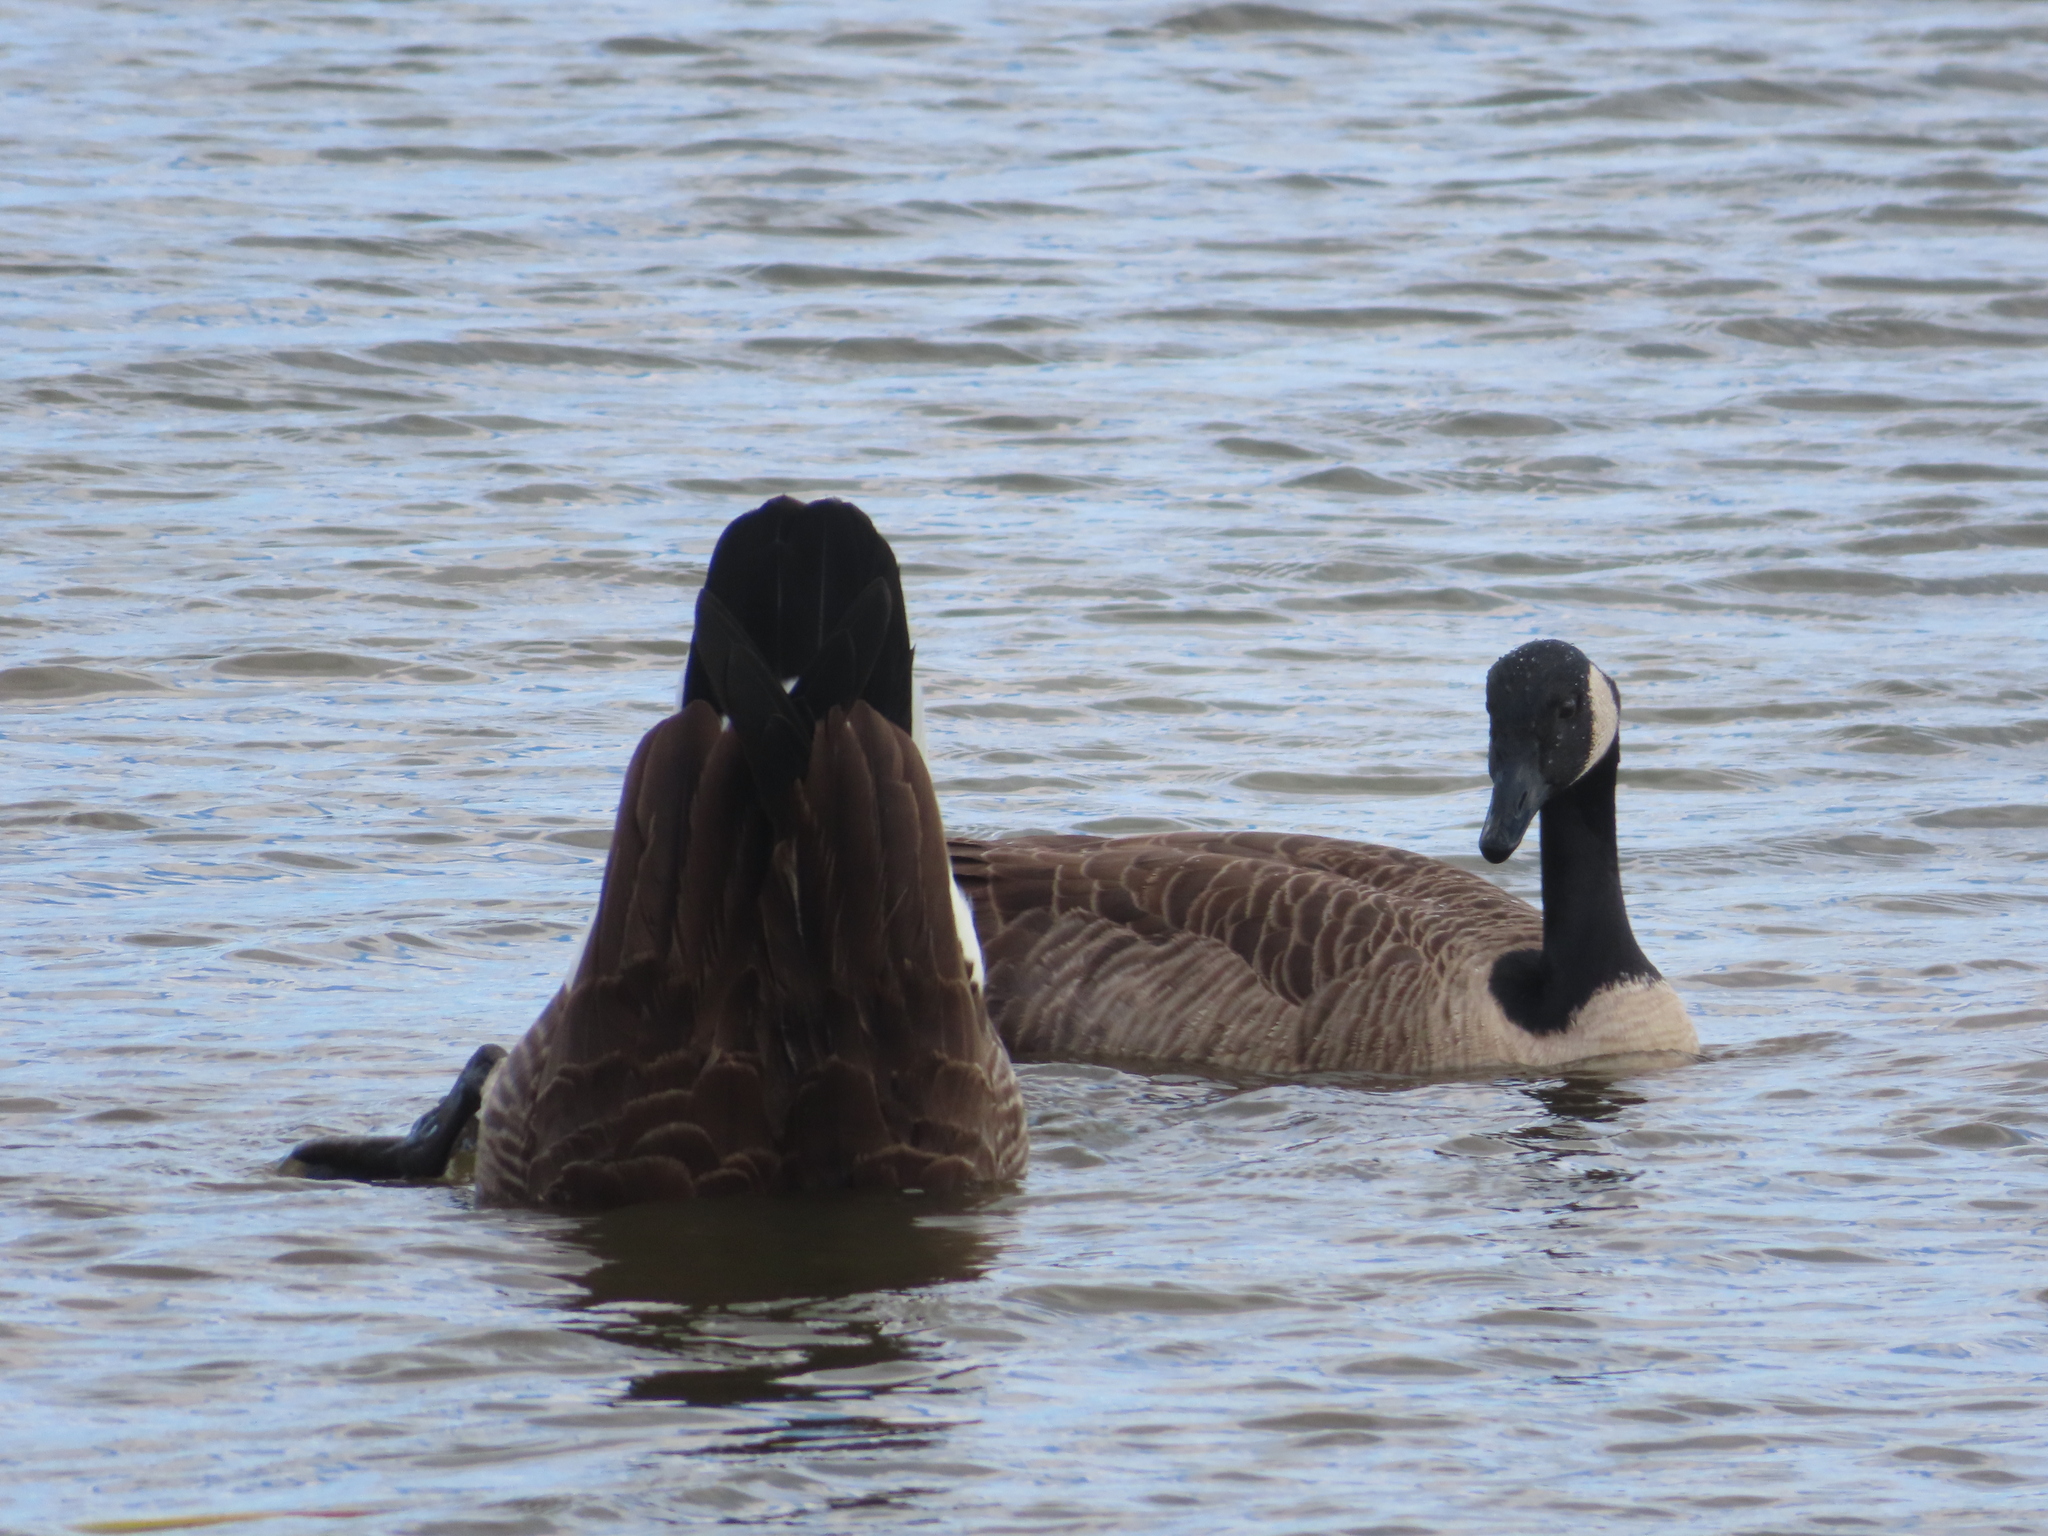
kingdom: Animalia
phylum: Chordata
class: Aves
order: Anseriformes
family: Anatidae
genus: Branta
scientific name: Branta canadensis
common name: Canada goose
